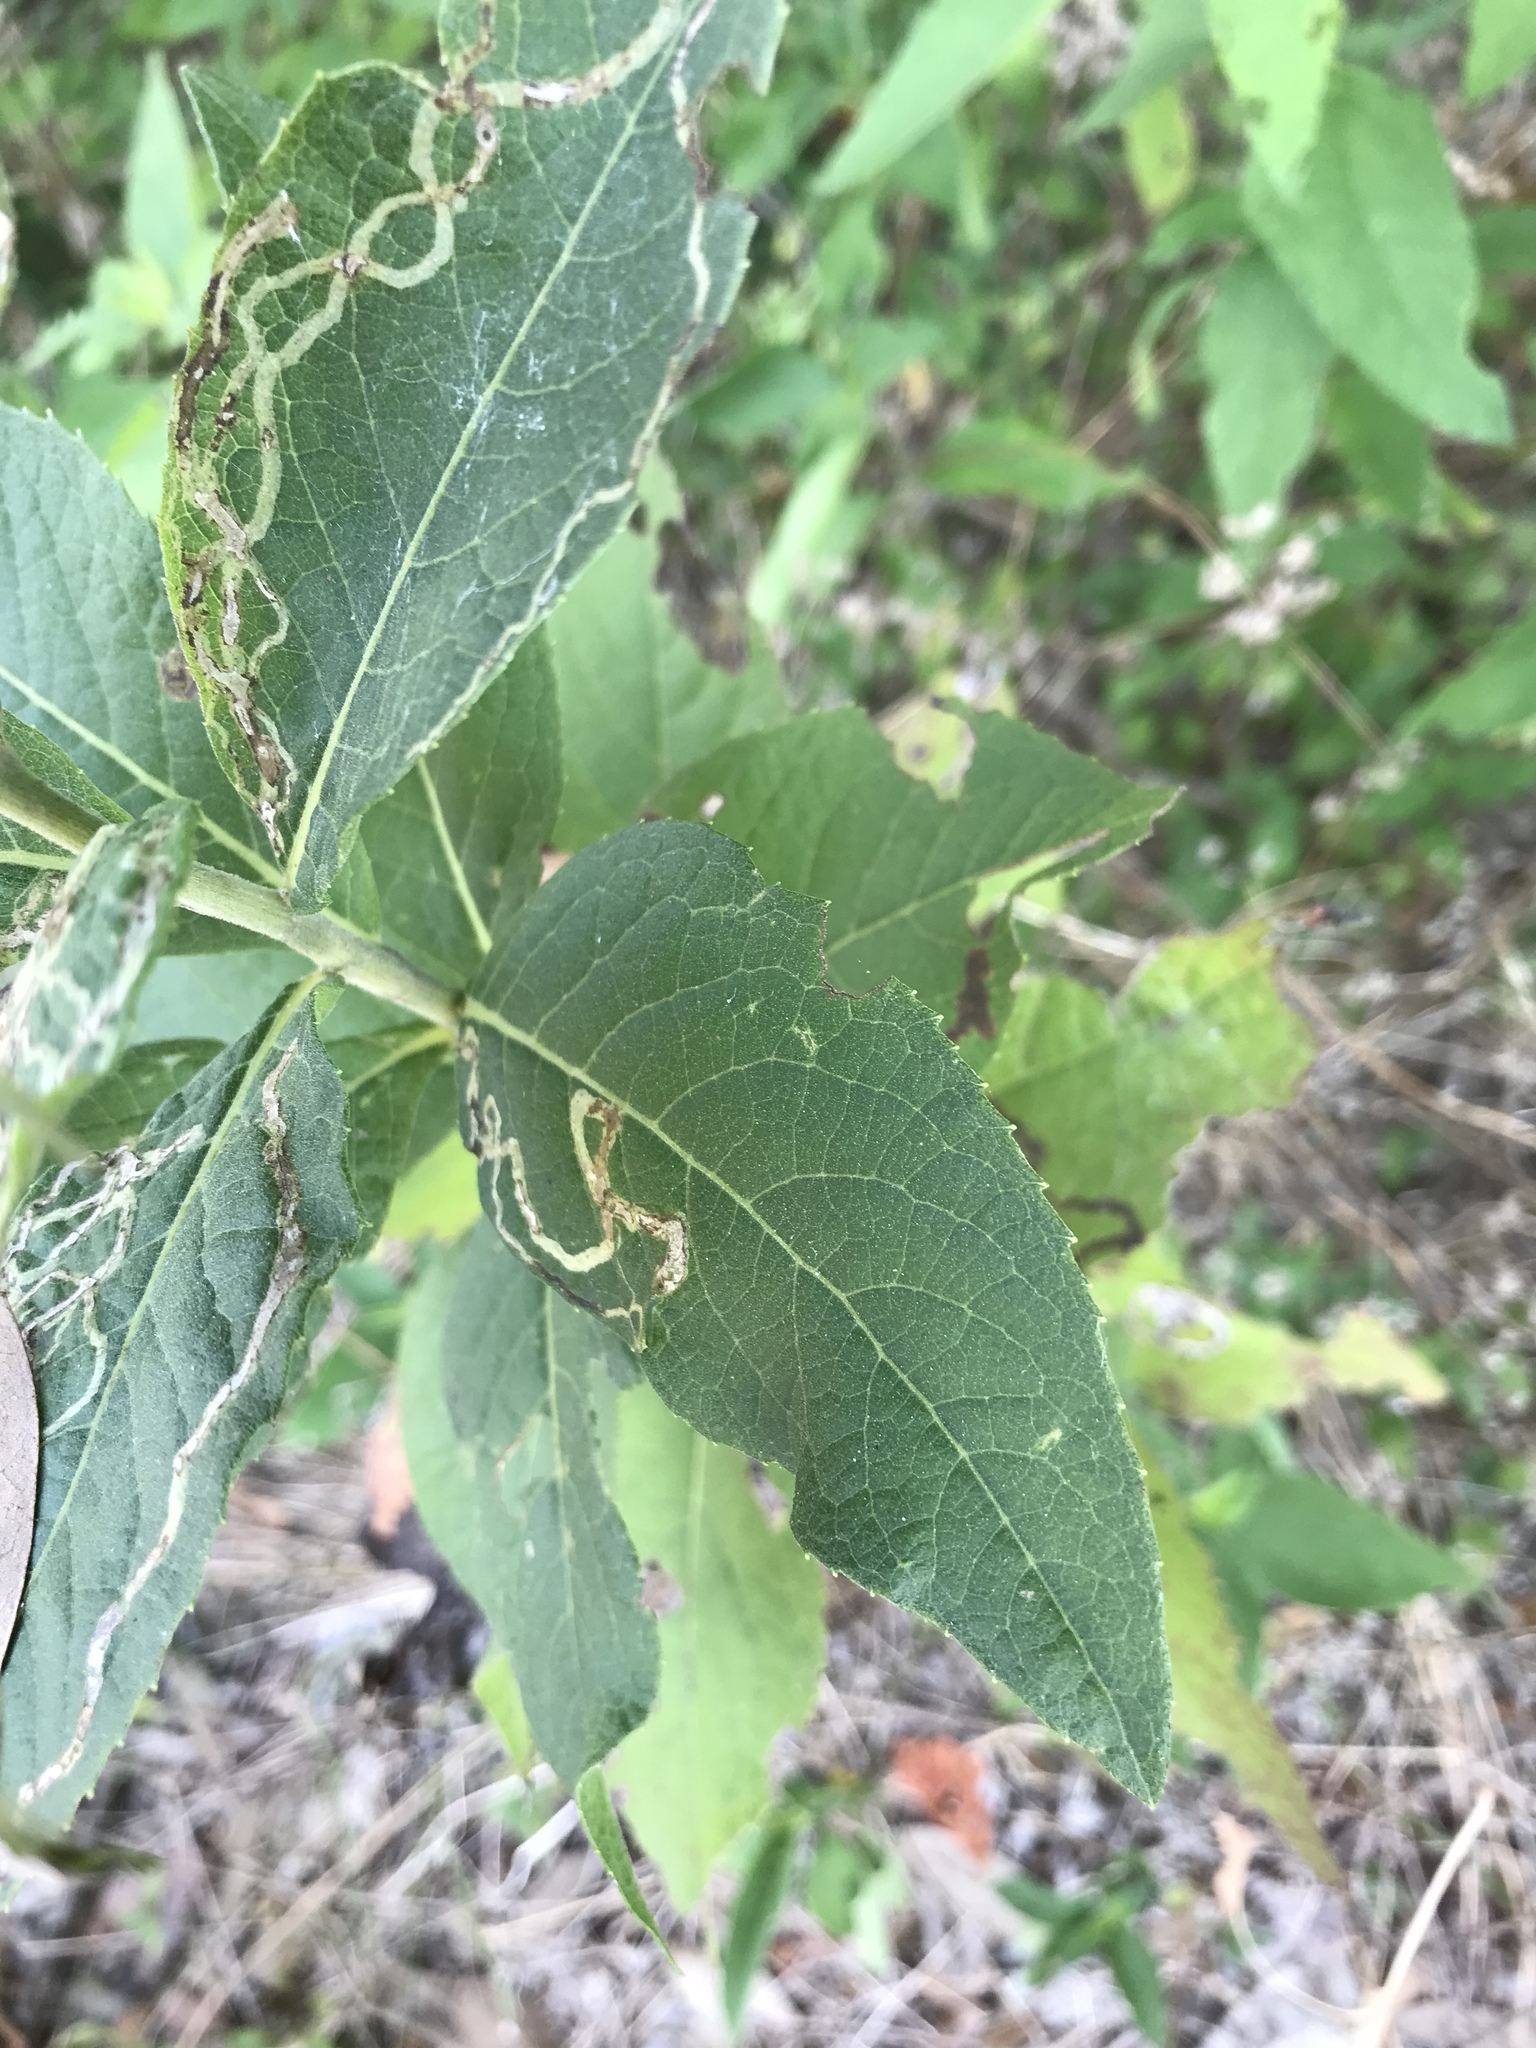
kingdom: Plantae
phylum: Tracheophyta
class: Magnoliopsida
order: Asterales
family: Asteraceae
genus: Vernonia
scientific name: Vernonia baldwinii
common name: Western ironweed
